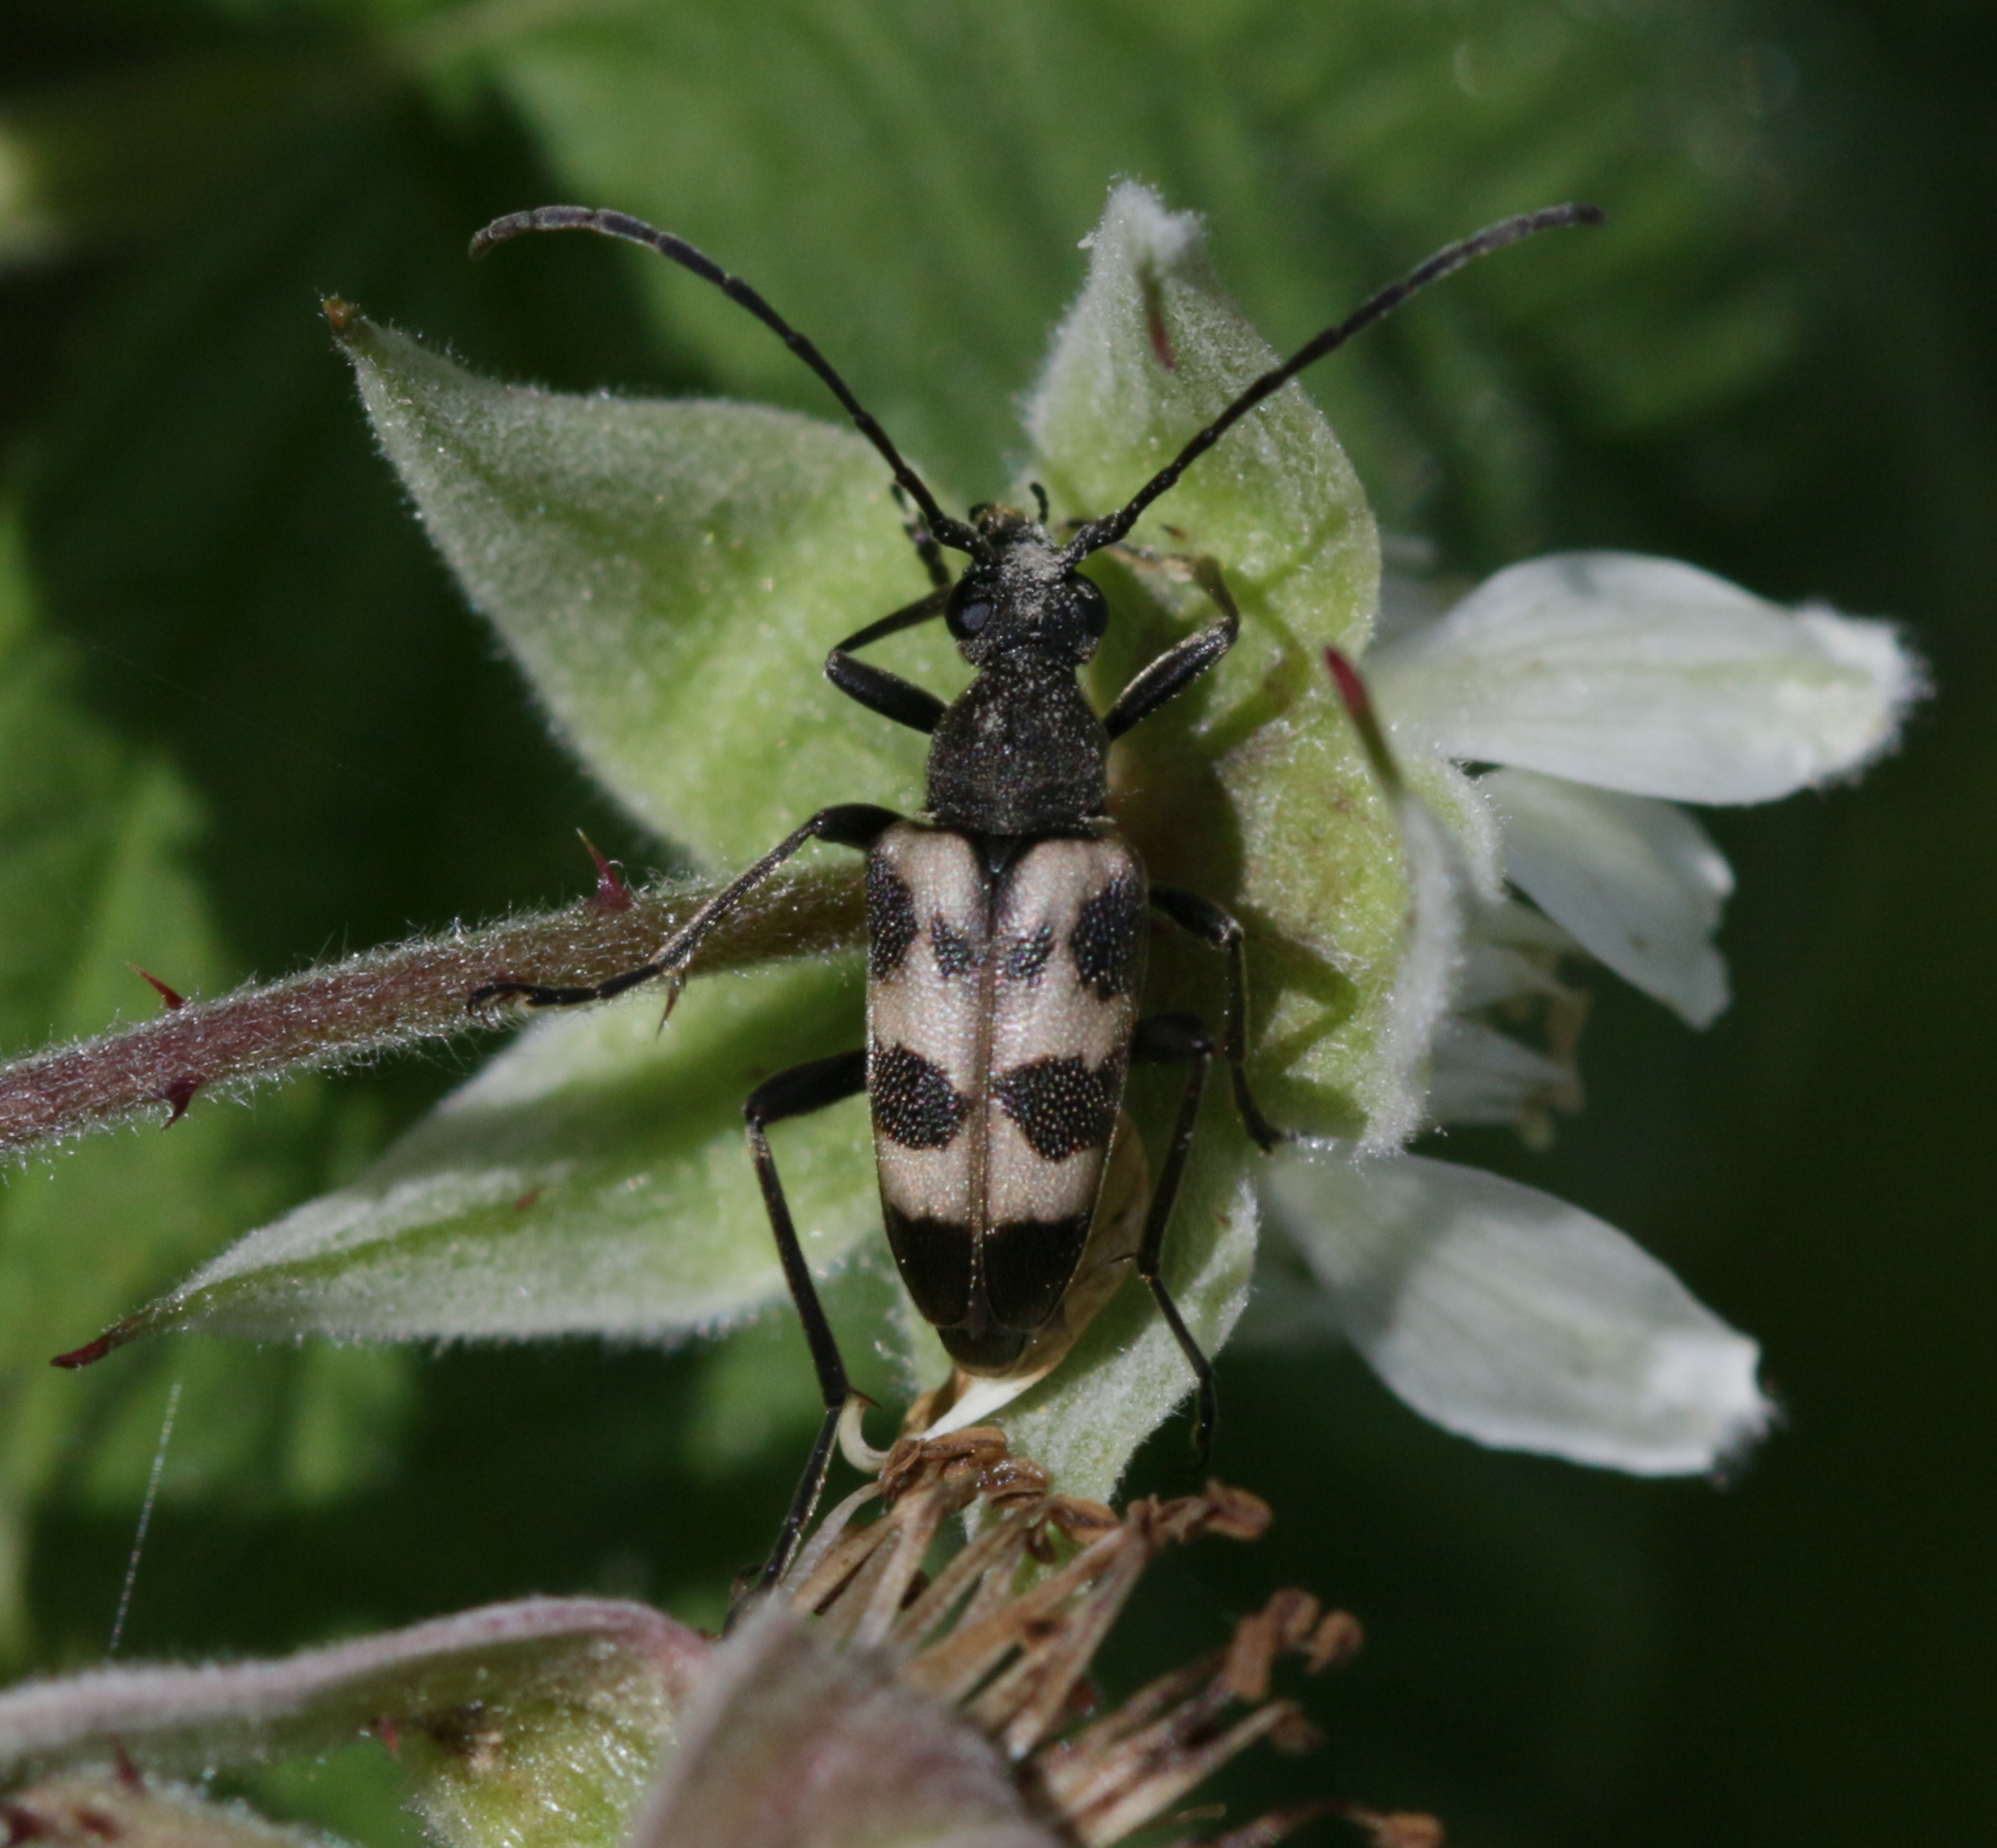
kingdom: Animalia
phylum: Arthropoda
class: Insecta
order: Coleoptera
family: Cerambycidae
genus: Pachytodes
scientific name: Pachytodes cerambyciformis
